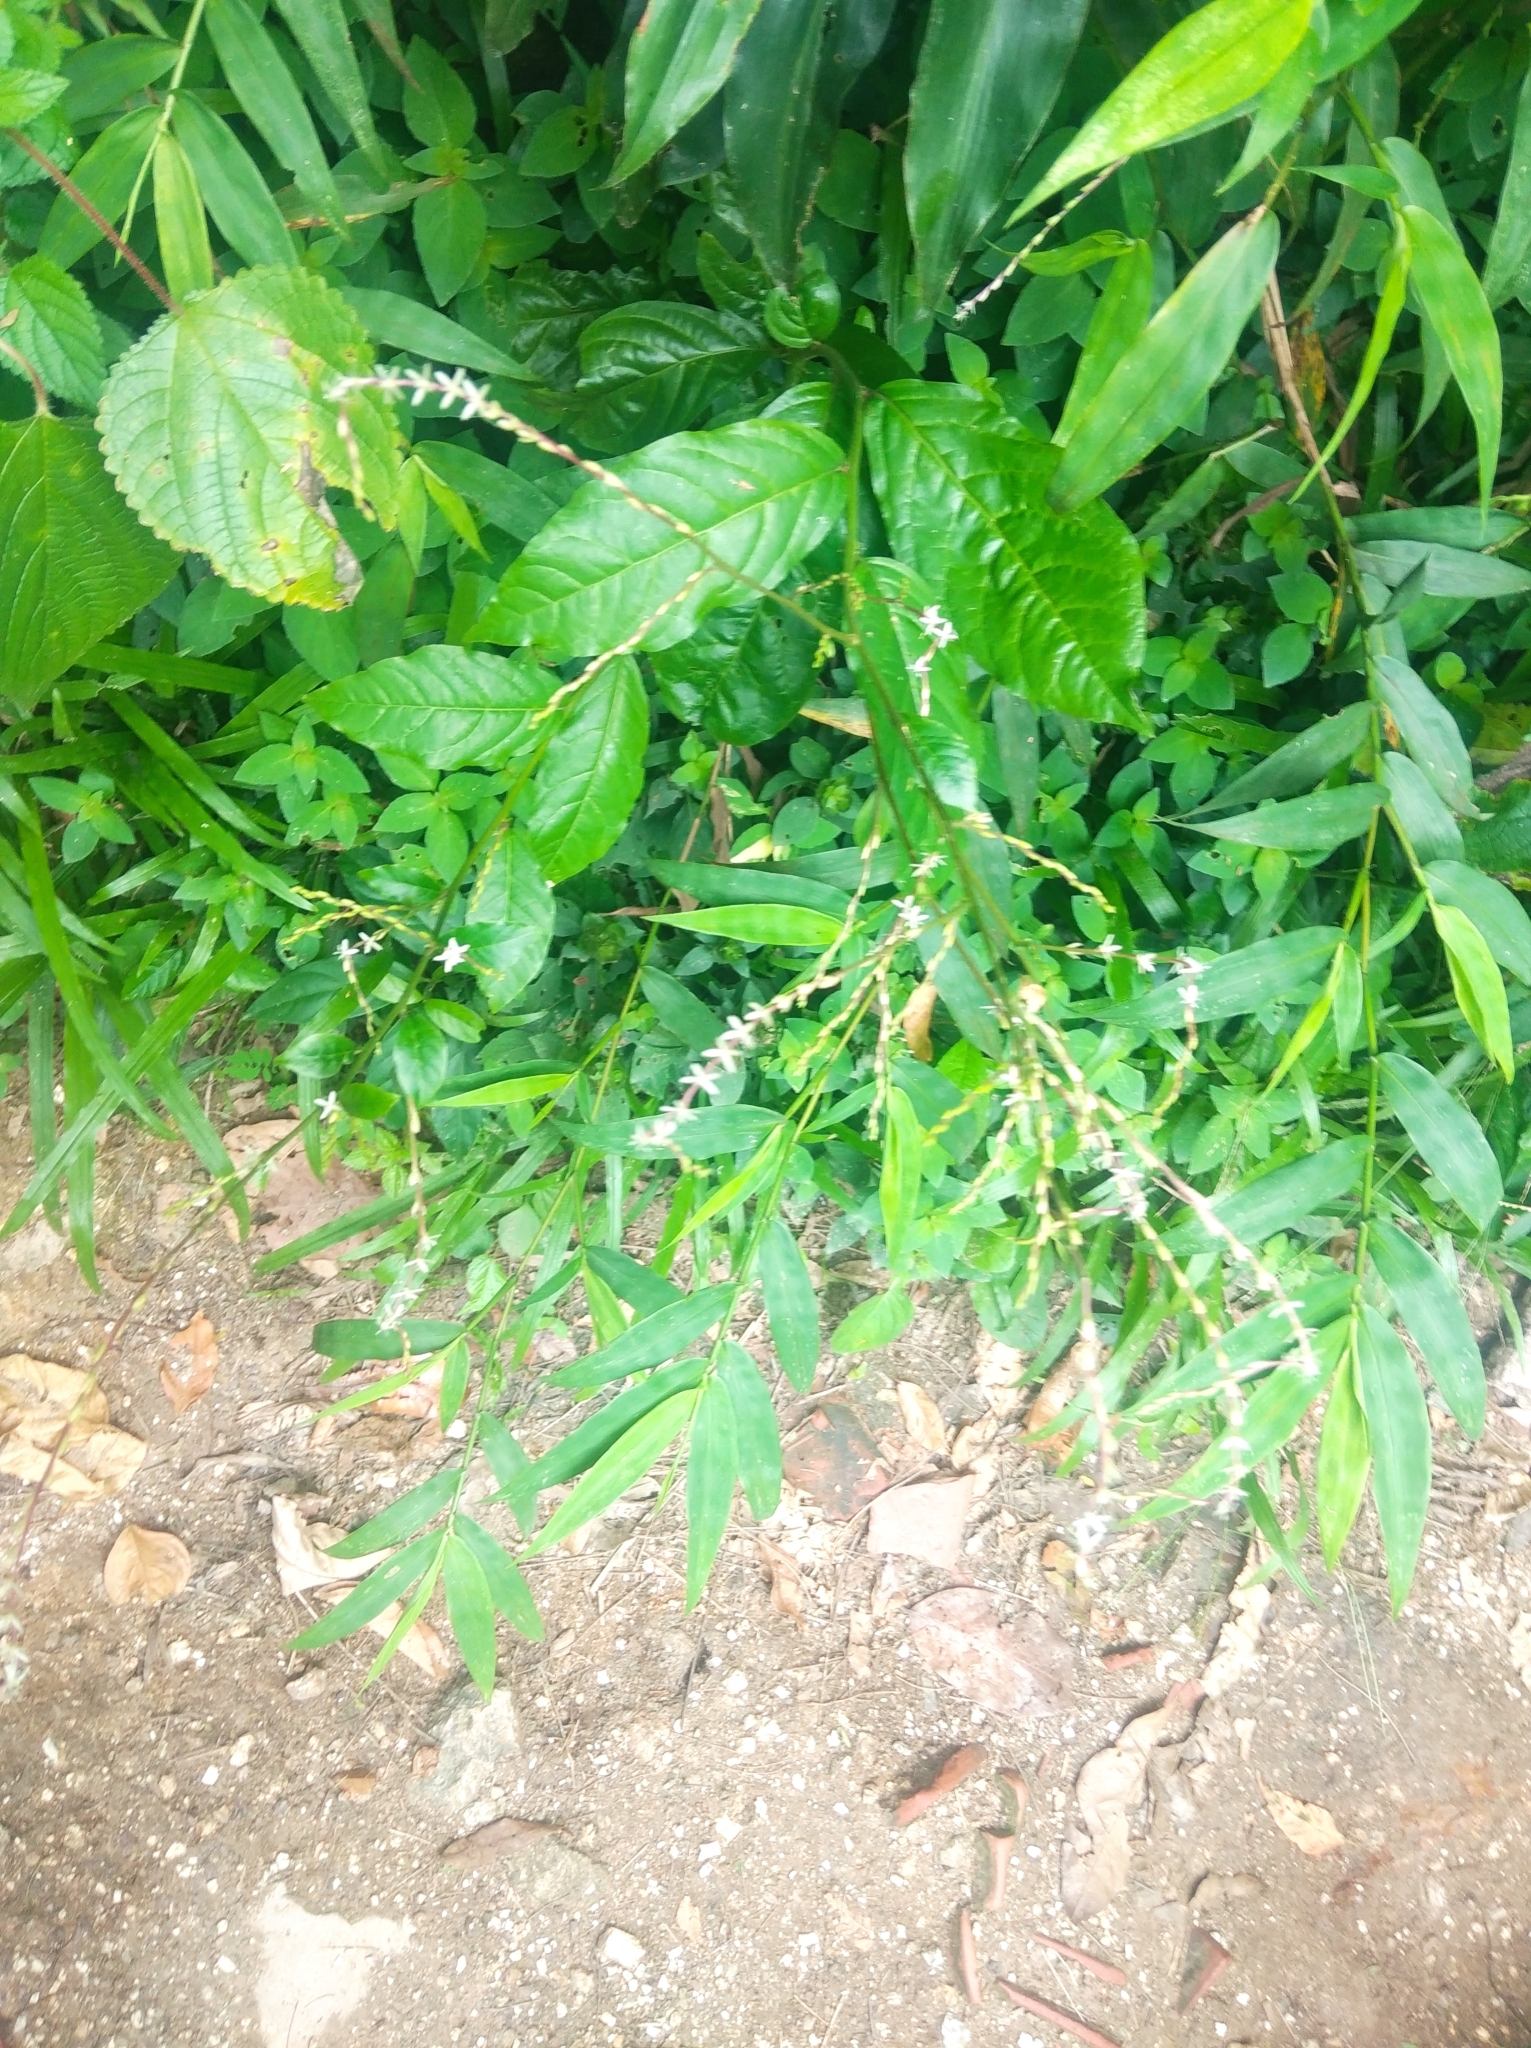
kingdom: Plantae
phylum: Tracheophyta
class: Magnoliopsida
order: Caryophyllales
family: Phytolaccaceae
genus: Petiveria
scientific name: Petiveria alliacea
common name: Garlicweed
